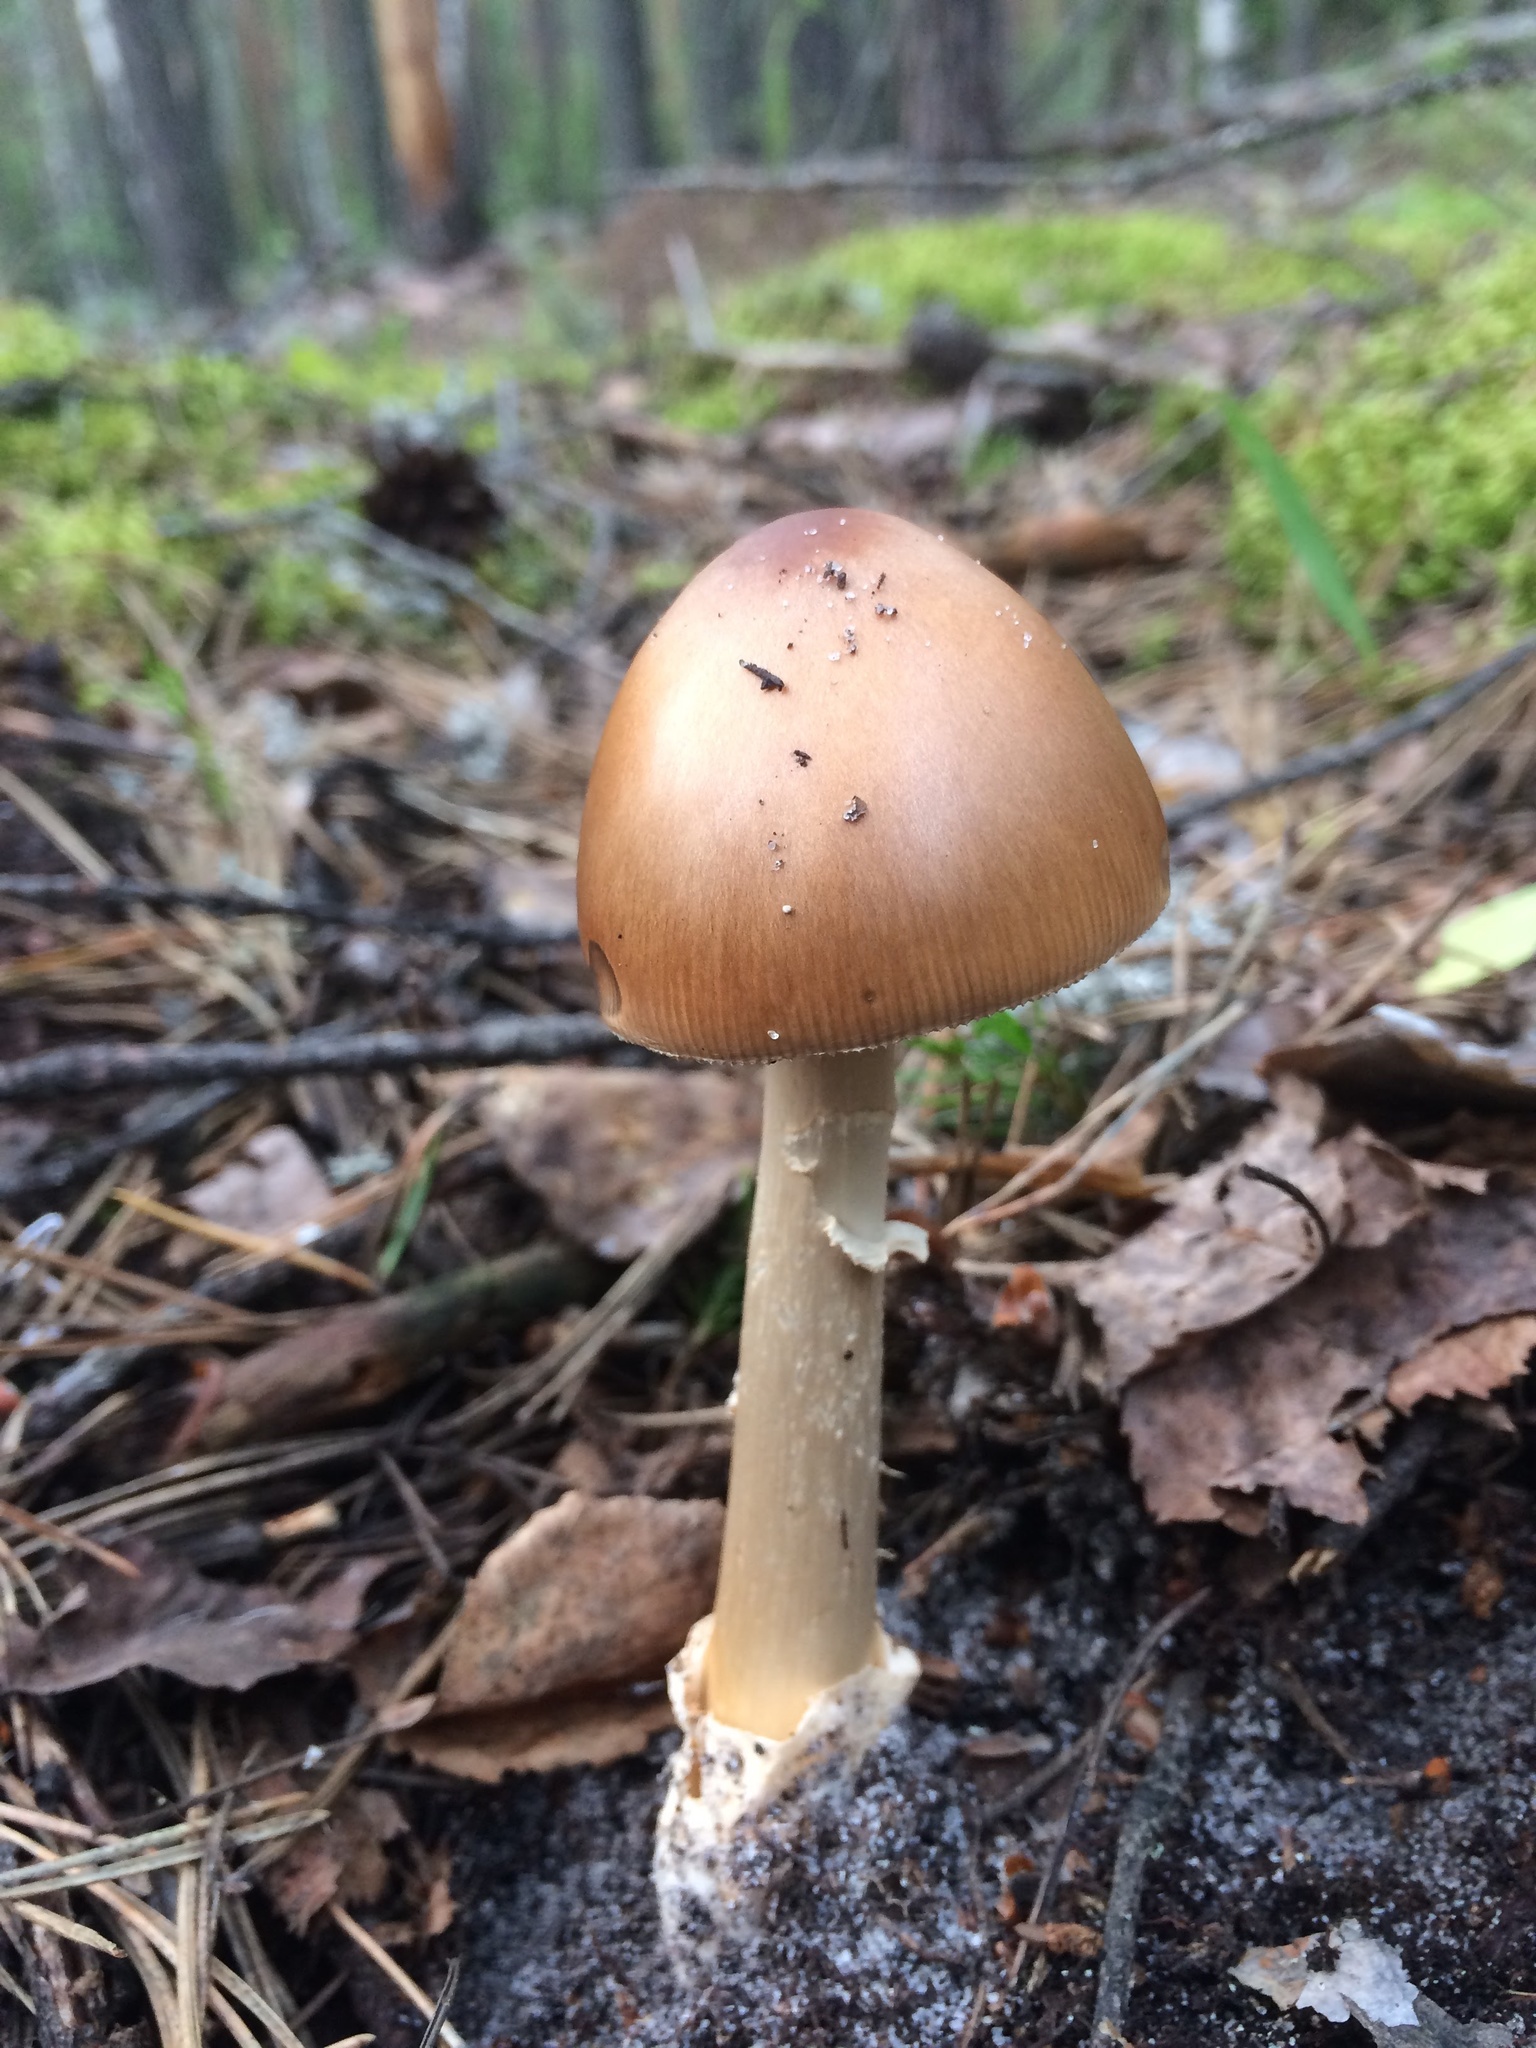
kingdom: Fungi
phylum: Basidiomycota
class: Agaricomycetes
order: Agaricales
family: Amanitaceae
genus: Amanita
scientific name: Amanita fulva
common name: Tawny grisette
